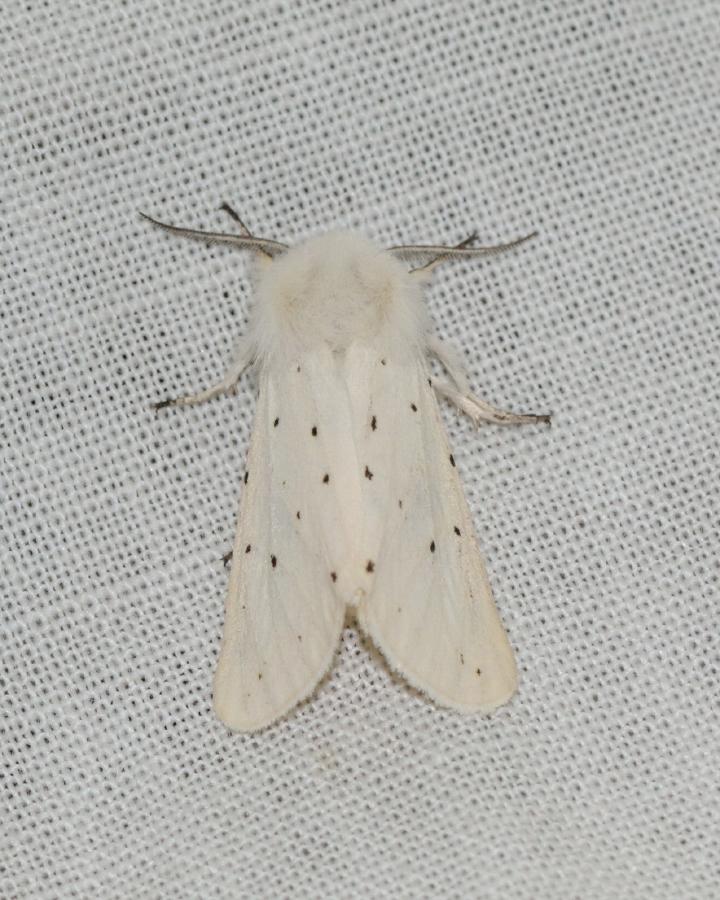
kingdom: Animalia
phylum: Arthropoda
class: Insecta
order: Lepidoptera
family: Erebidae
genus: Spilosoma
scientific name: Spilosoma lubricipeda
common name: White ermine
